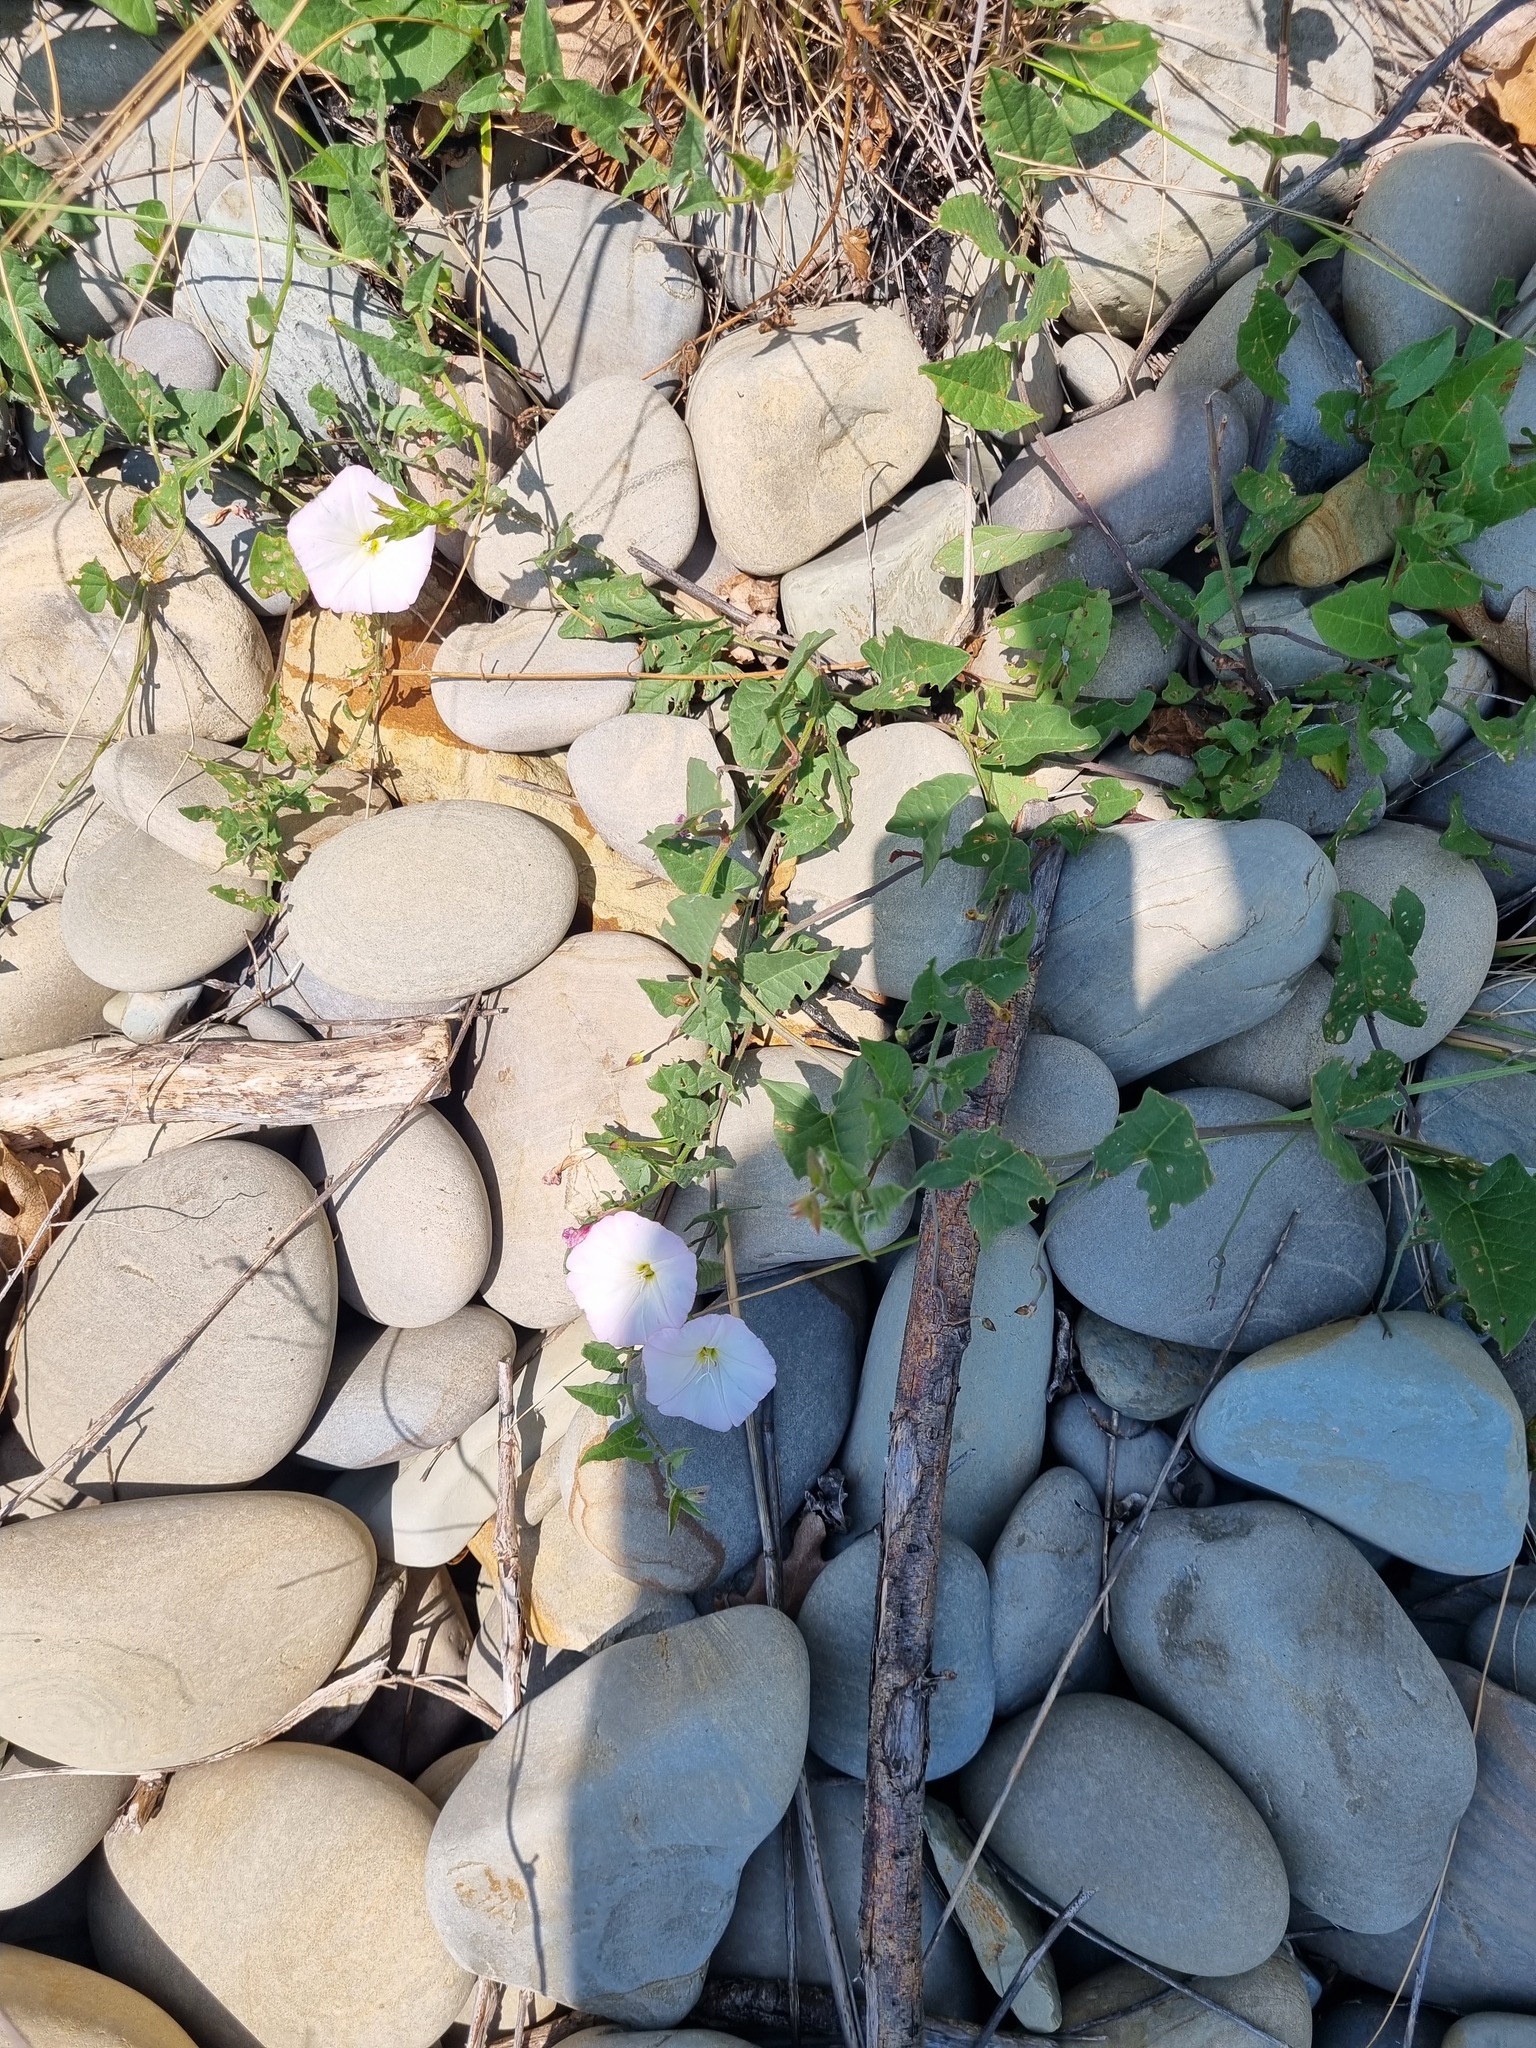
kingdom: Plantae
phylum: Tracheophyta
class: Magnoliopsida
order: Solanales
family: Convolvulaceae
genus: Convolvulus
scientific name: Convolvulus arvensis
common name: Field bindweed
